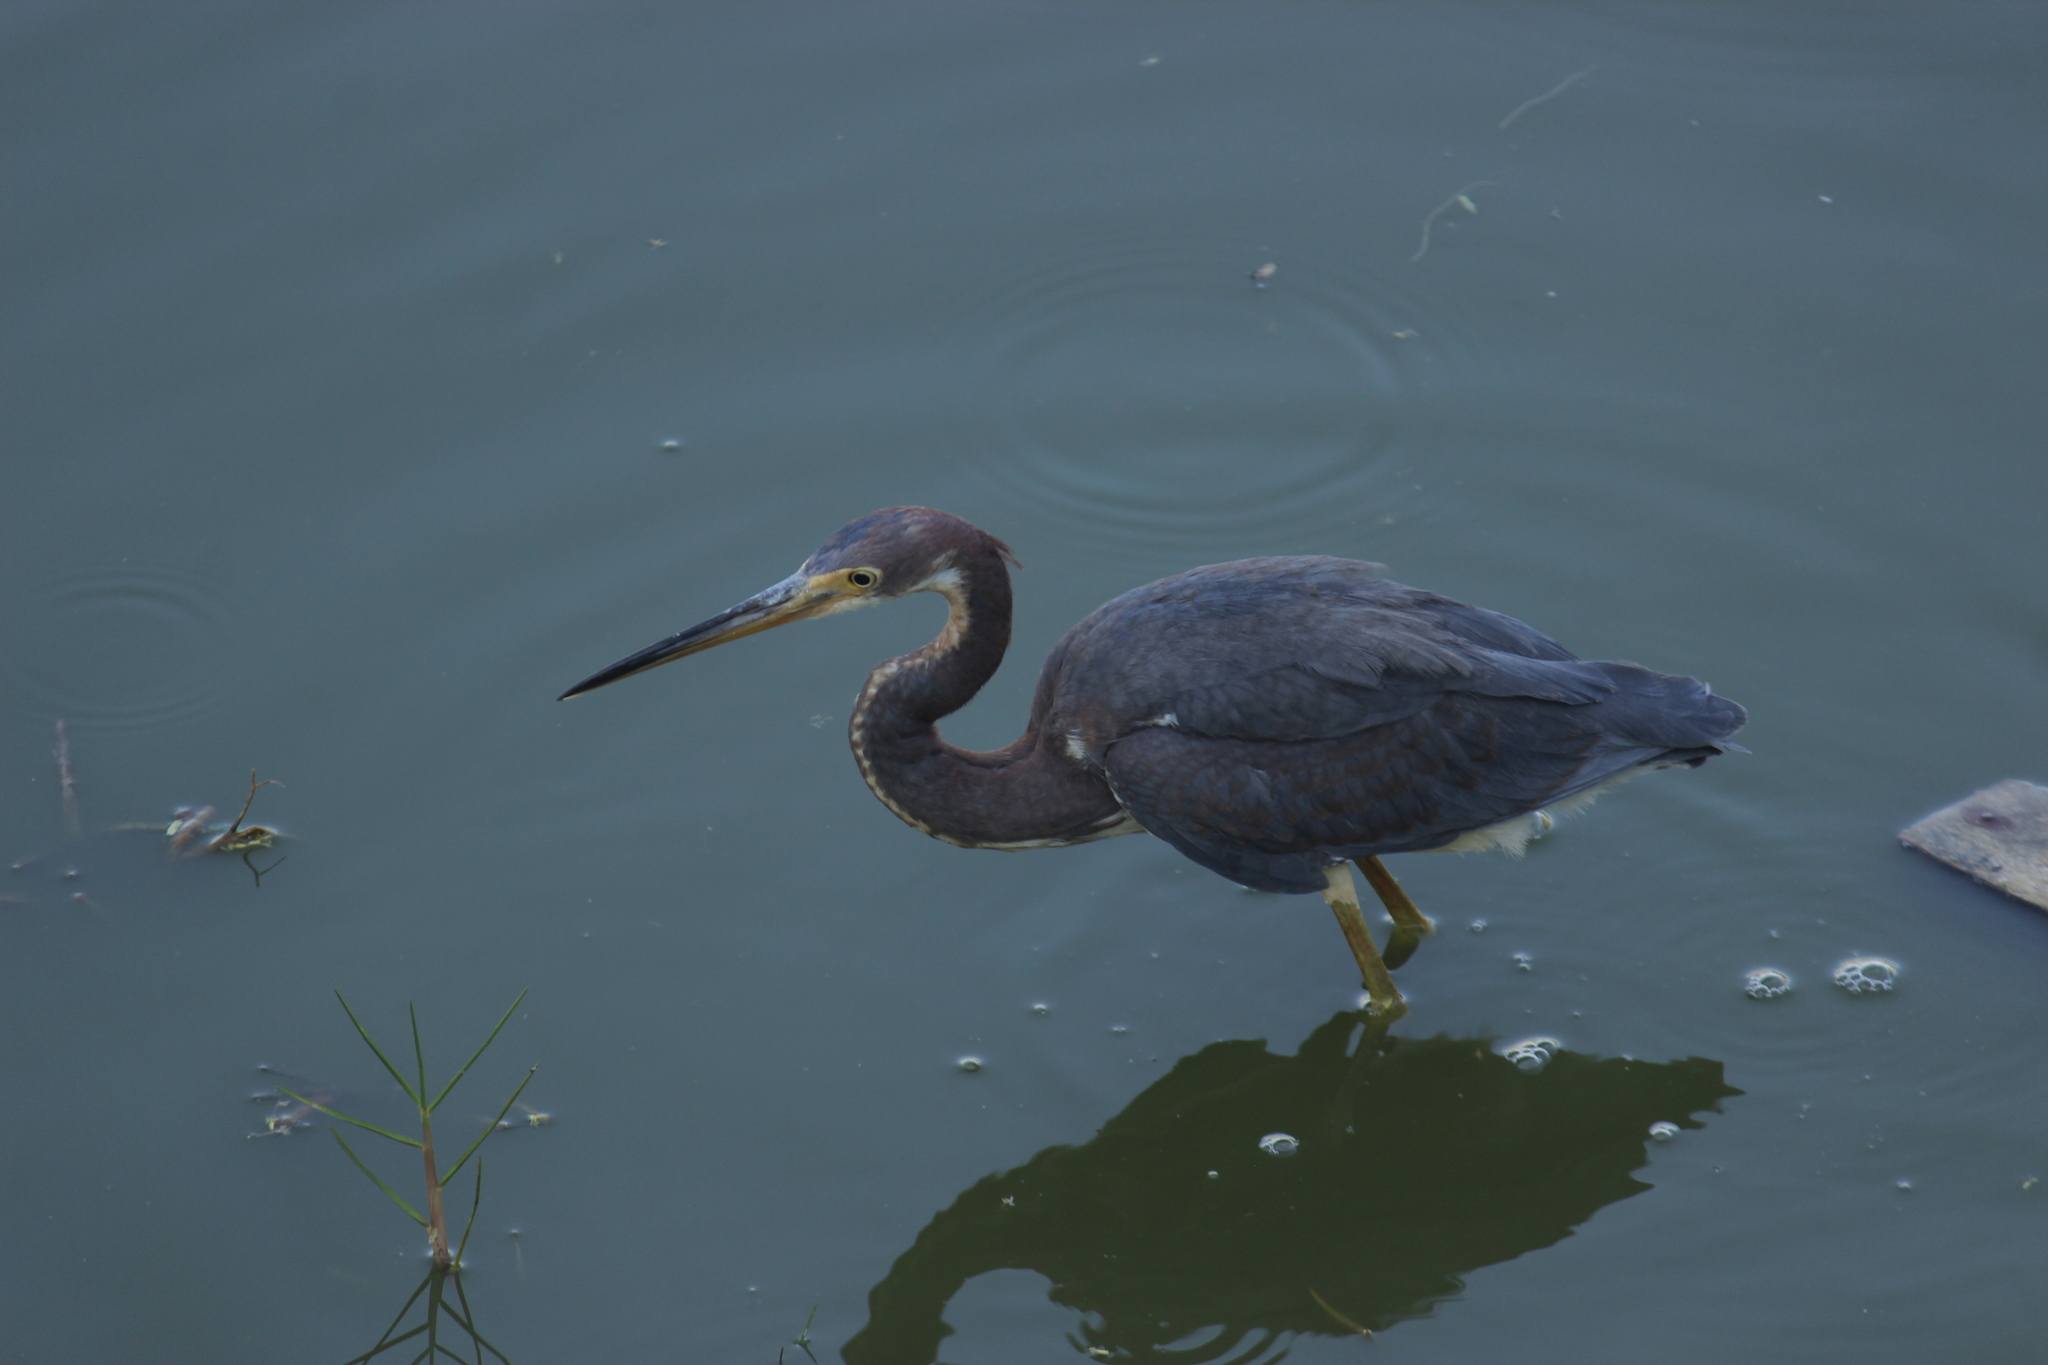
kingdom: Animalia
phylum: Chordata
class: Aves
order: Pelecaniformes
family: Ardeidae
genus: Egretta
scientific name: Egretta tricolor
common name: Tricolored heron
